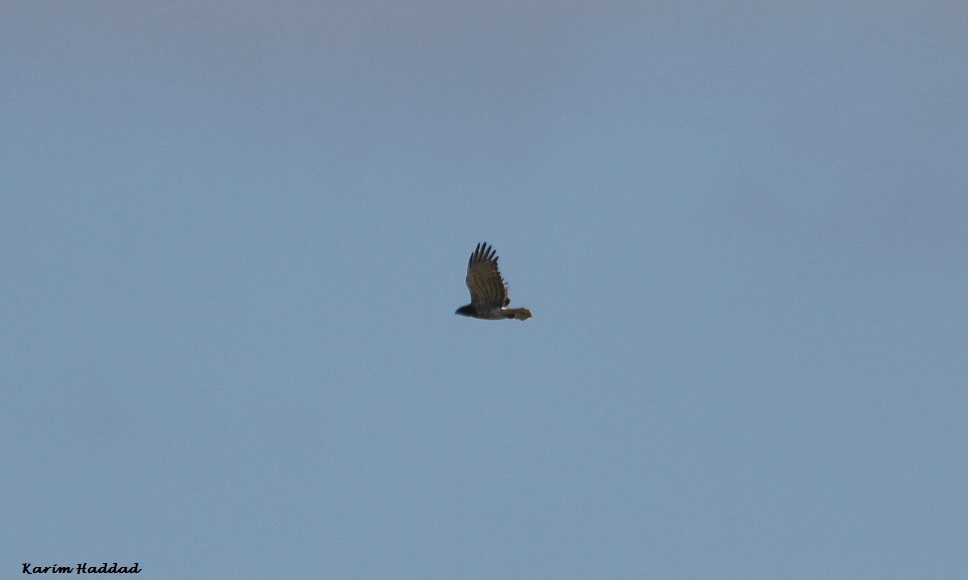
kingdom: Animalia
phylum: Chordata
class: Aves
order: Accipitriformes
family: Accipitridae
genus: Circaetus
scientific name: Circaetus gallicus
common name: Short-toed snake eagle
